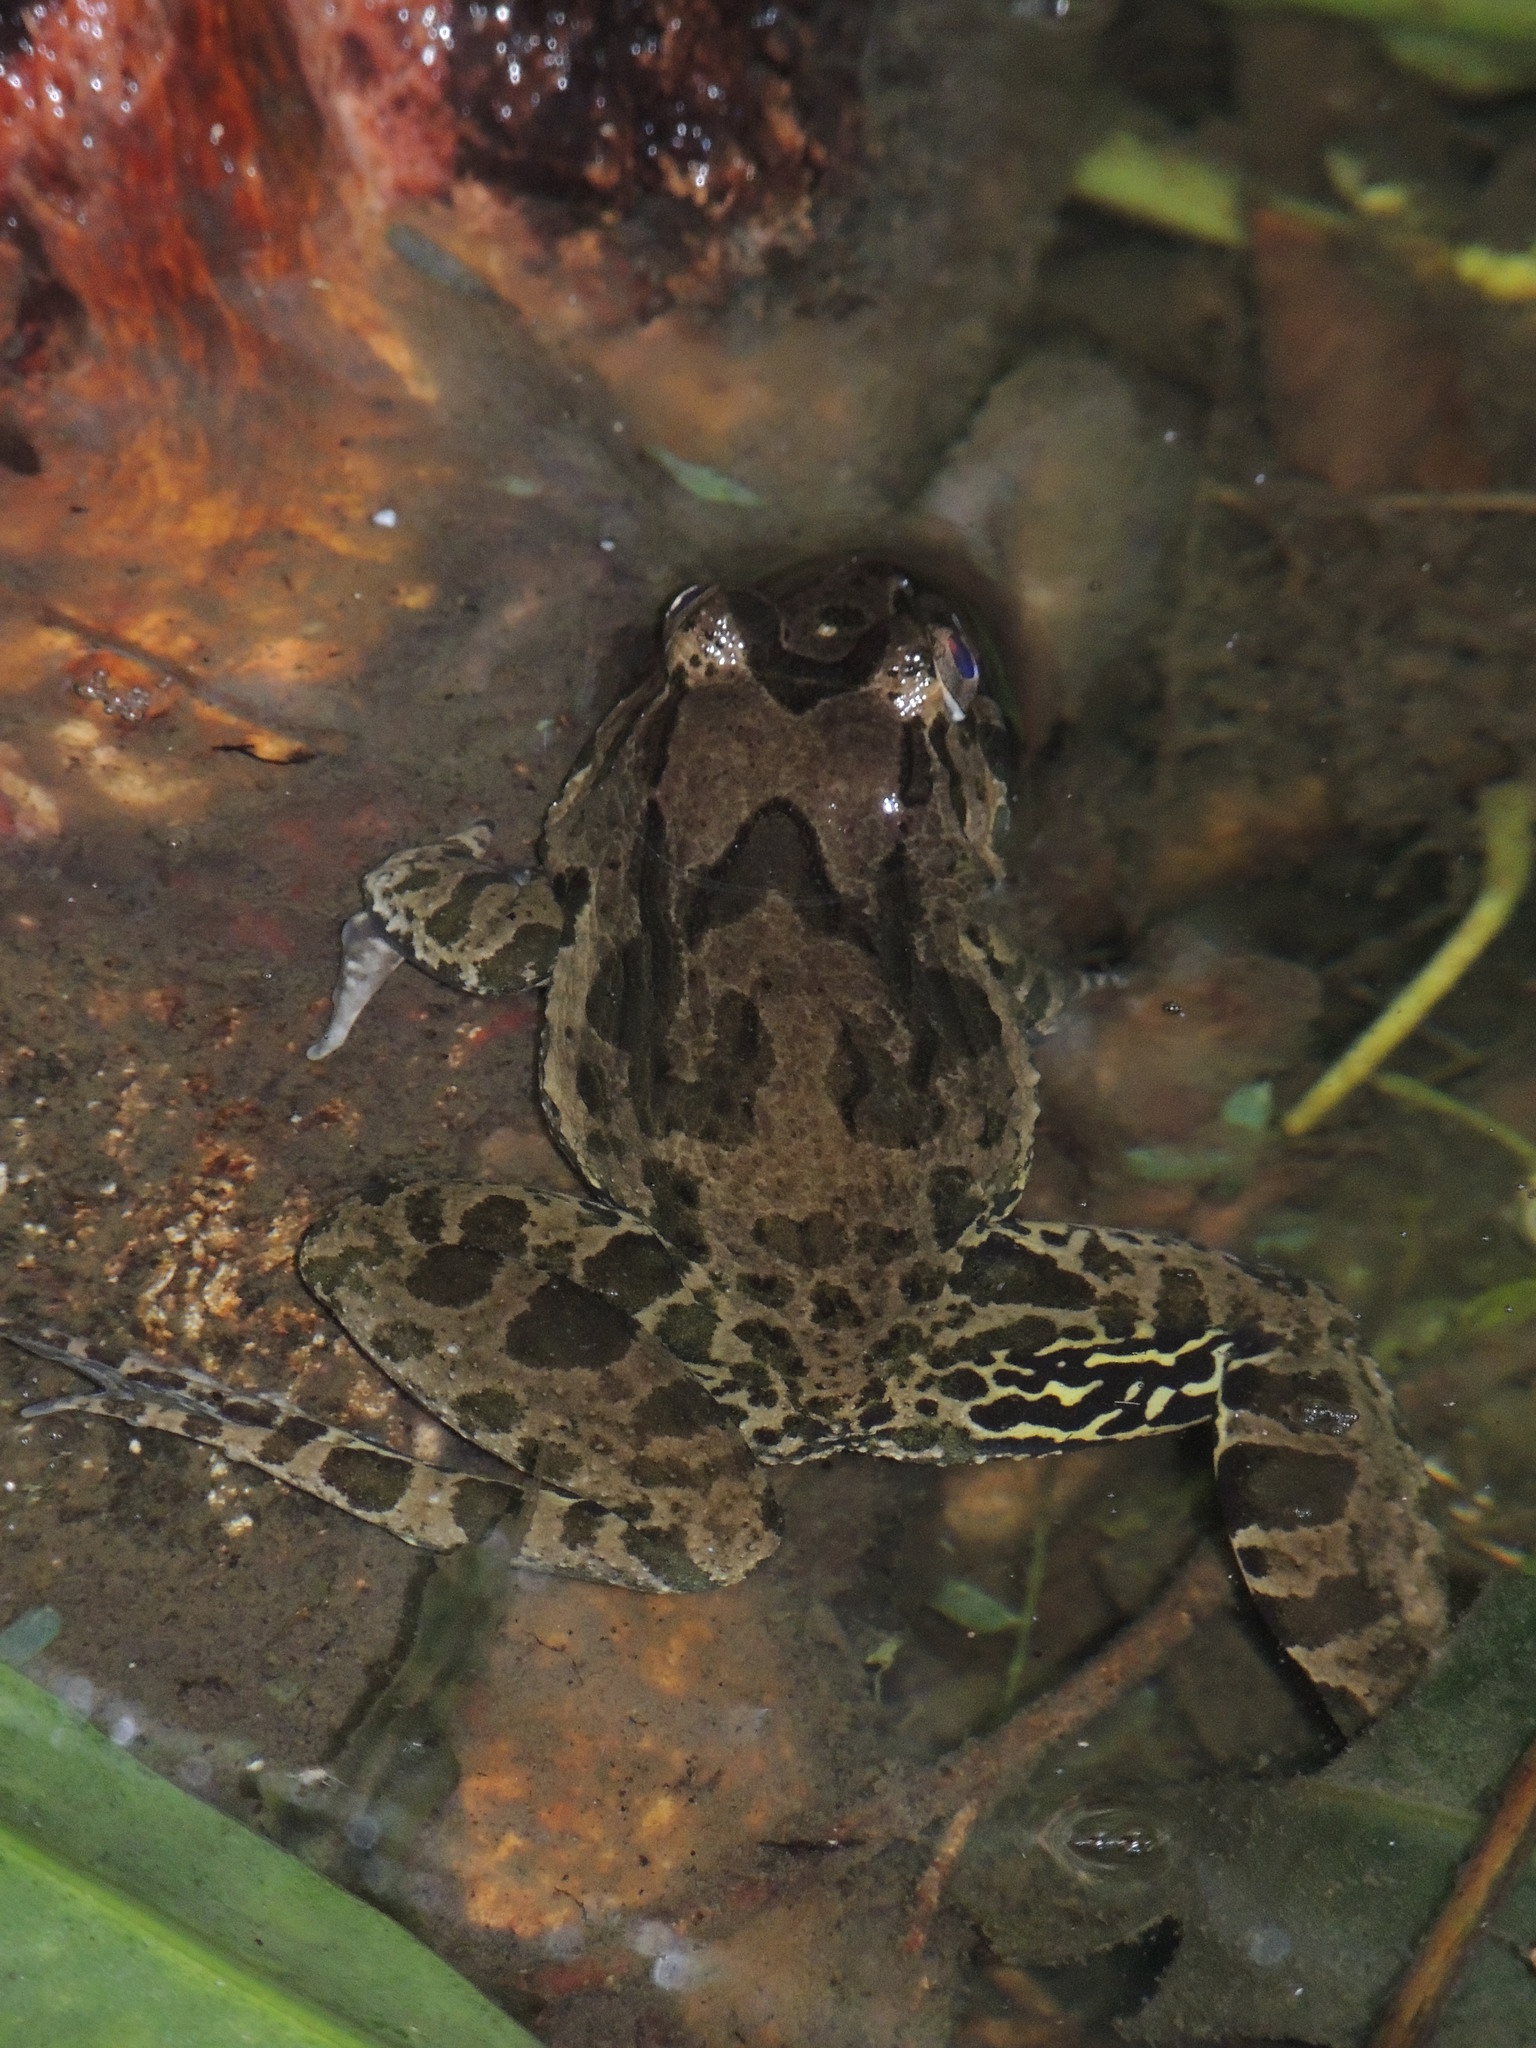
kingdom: Animalia
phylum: Chordata
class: Amphibia
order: Anura
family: Dicroglossidae
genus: Fejervarya
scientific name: Fejervarya cancrivora
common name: Crab-eating frog/mangrove frog/rice field frog/asian brackish frog
